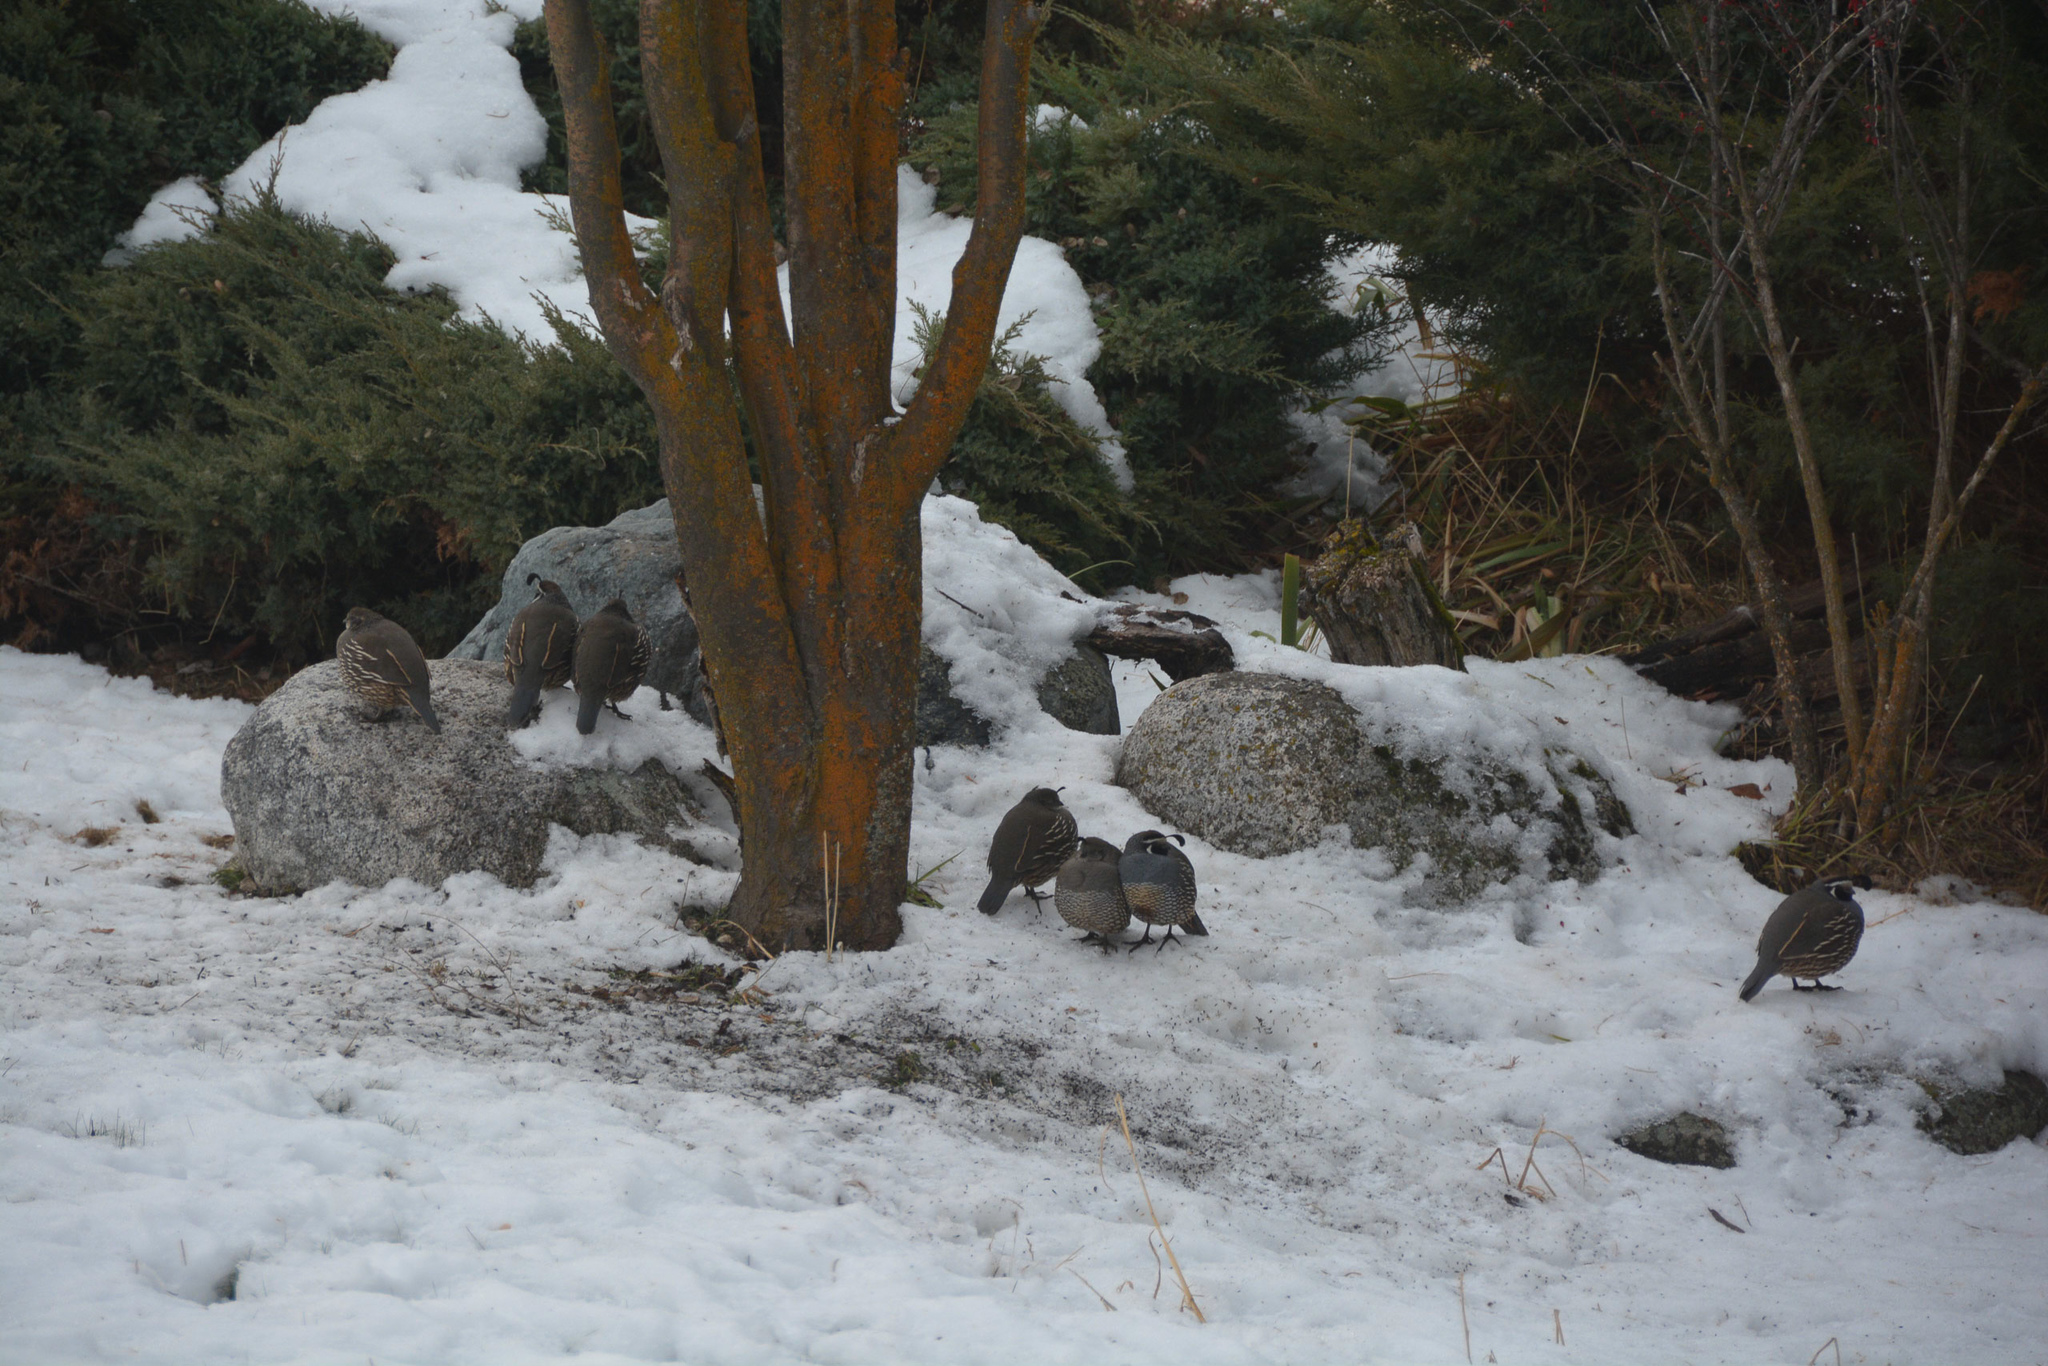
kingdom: Animalia
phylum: Chordata
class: Aves
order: Galliformes
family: Odontophoridae
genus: Callipepla
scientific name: Callipepla californica
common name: California quail
